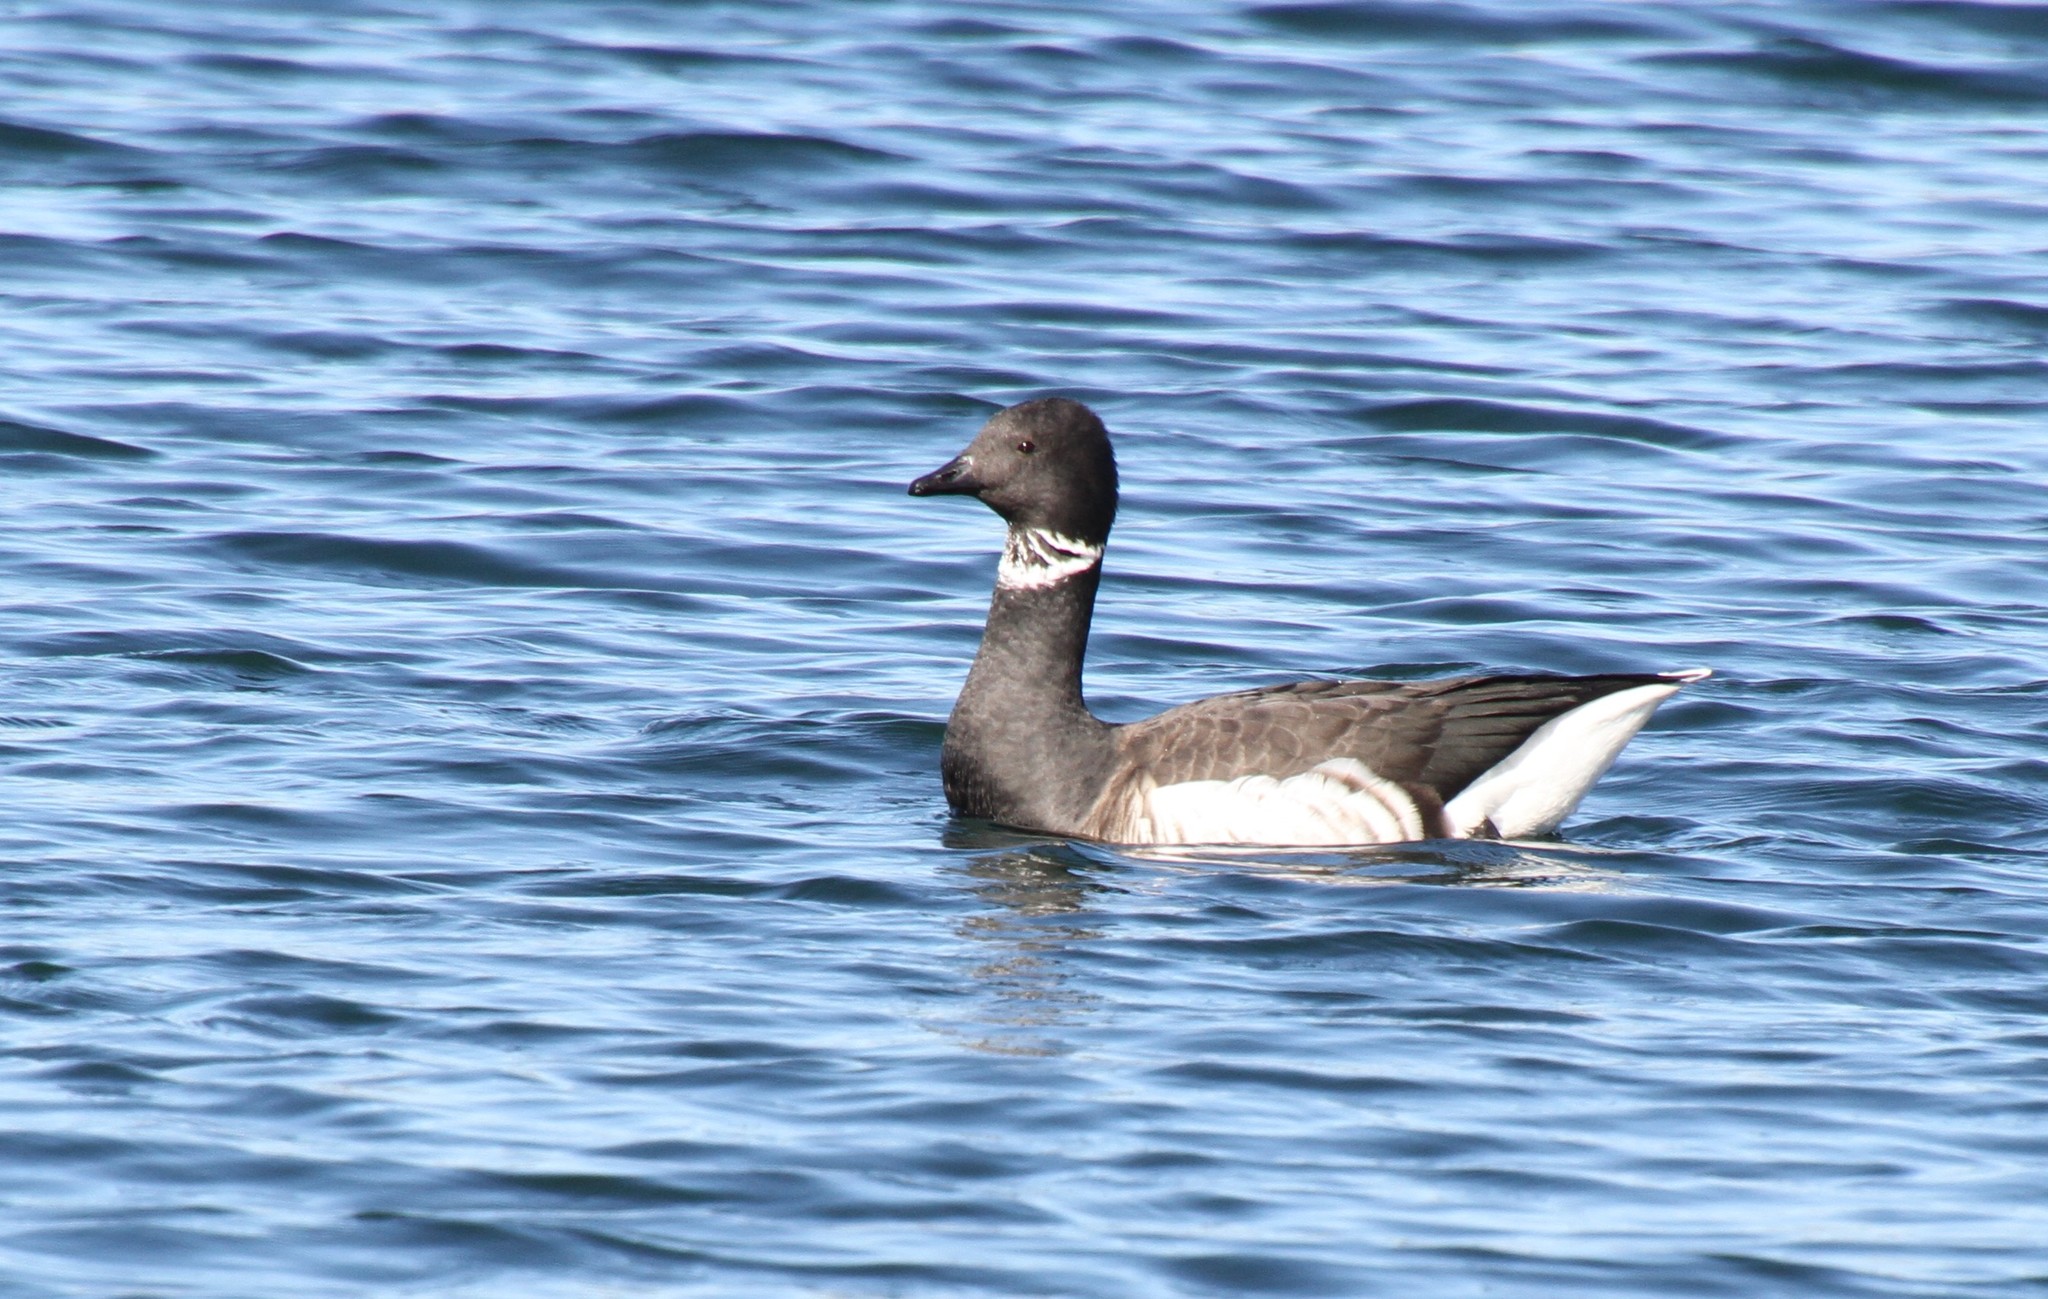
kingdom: Animalia
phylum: Chordata
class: Aves
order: Anseriformes
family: Anatidae
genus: Branta
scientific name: Branta bernicla
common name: Brant goose
